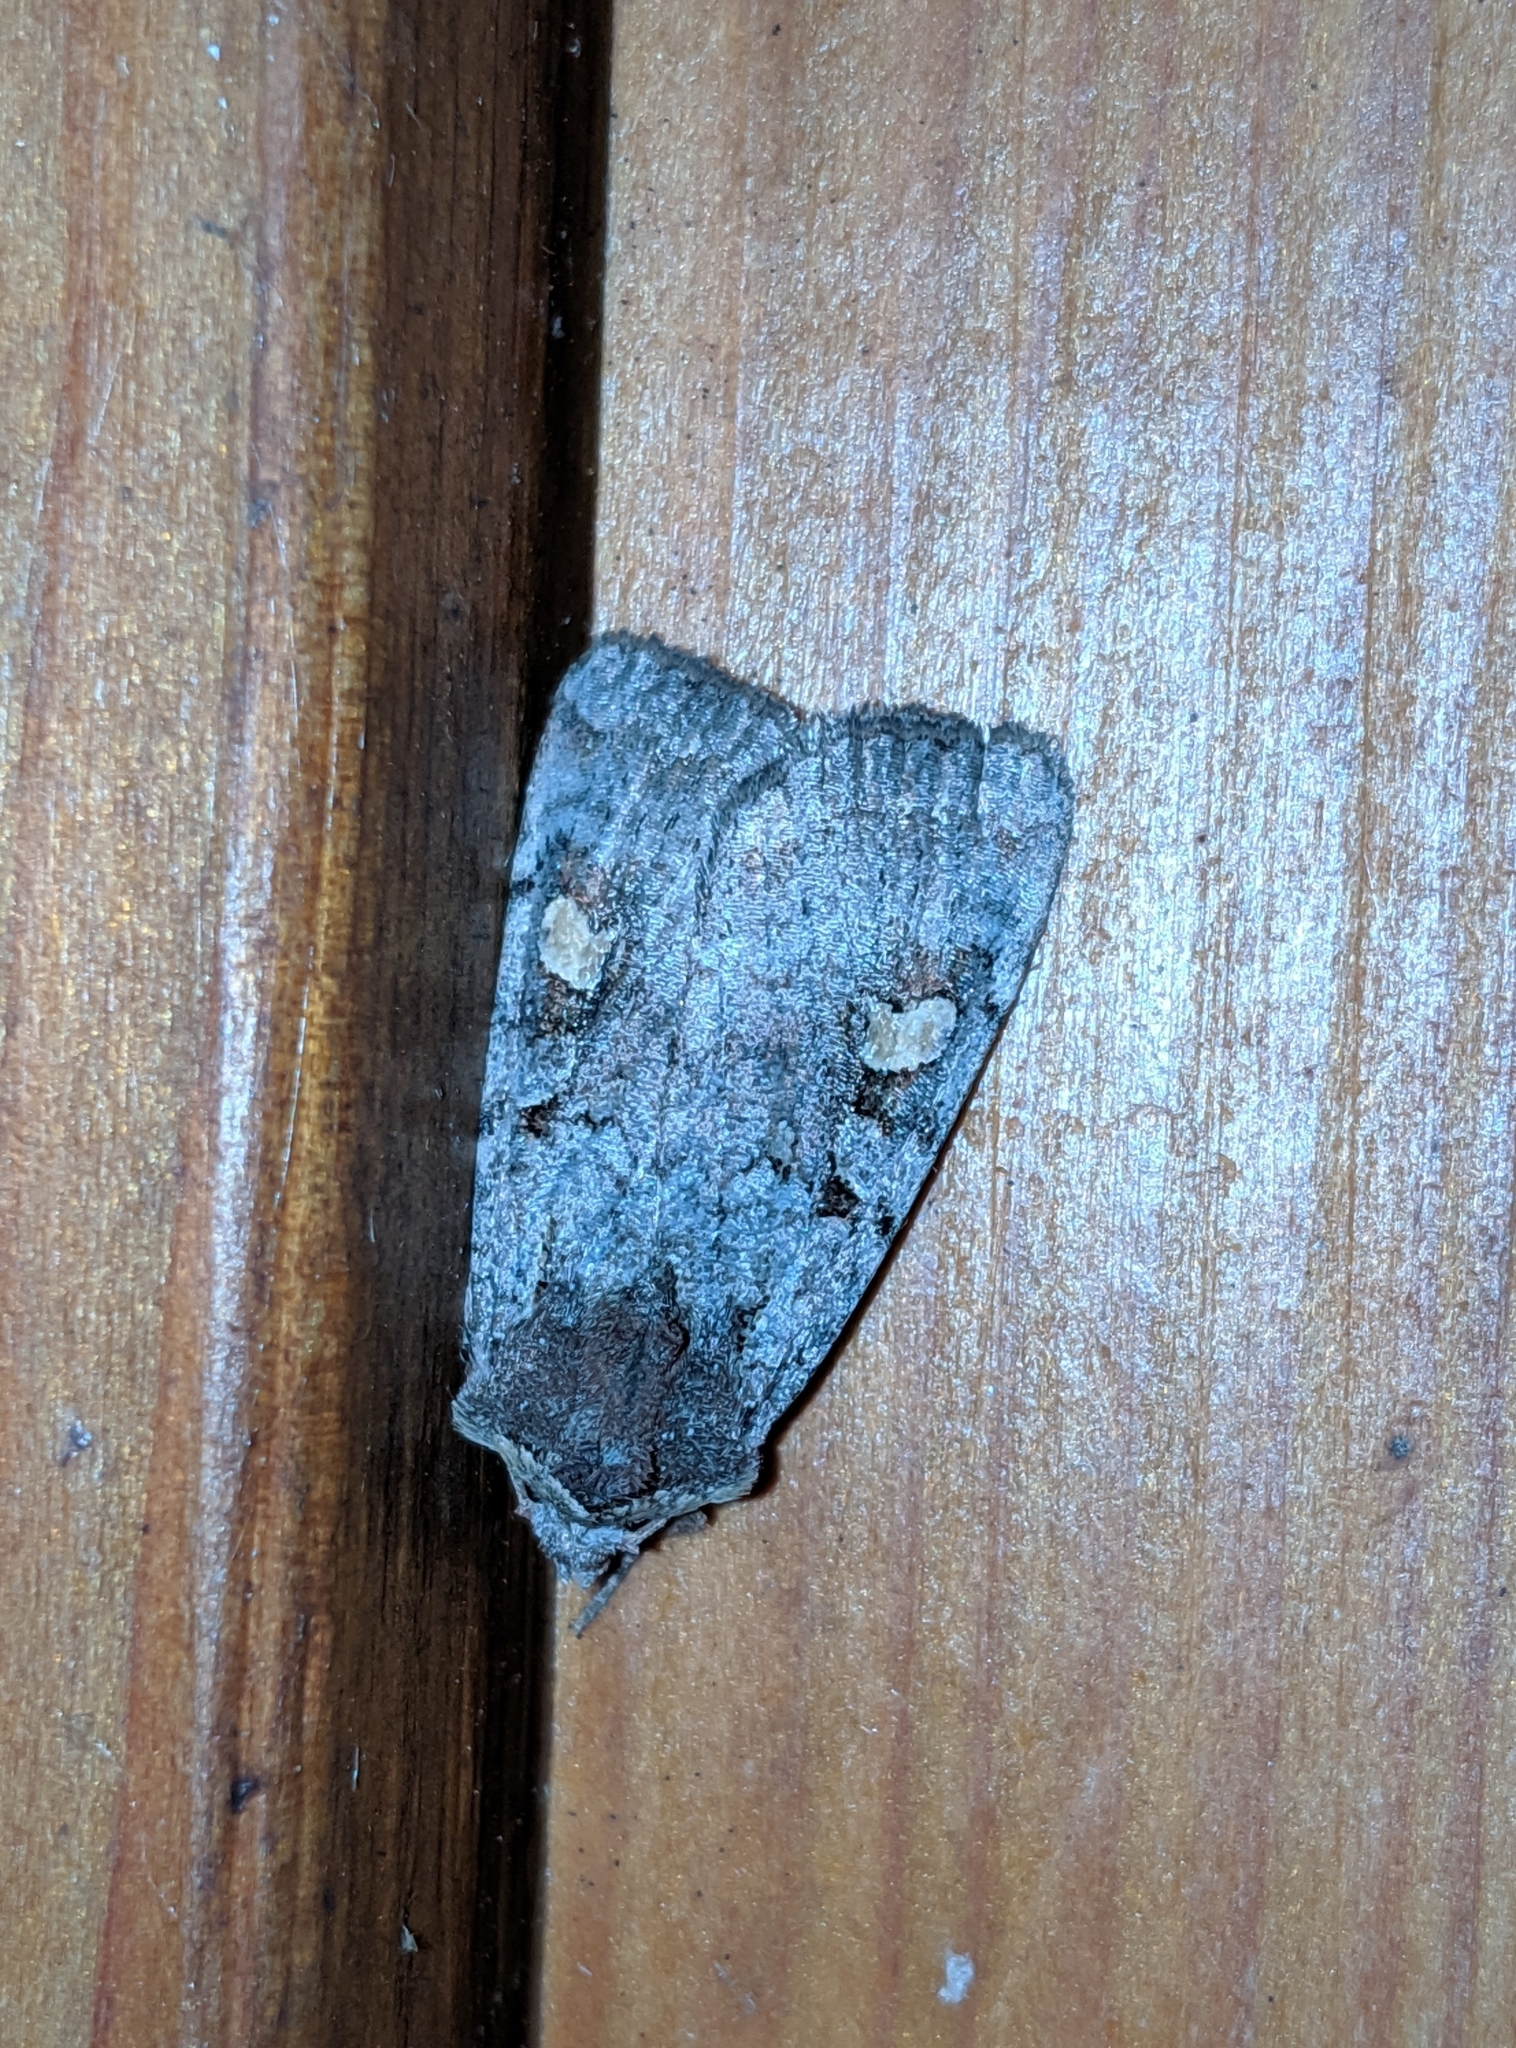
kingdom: Animalia
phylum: Arthropoda
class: Insecta
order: Lepidoptera
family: Noctuidae
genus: Adelphagrotis
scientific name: Adelphagrotis stellaris
